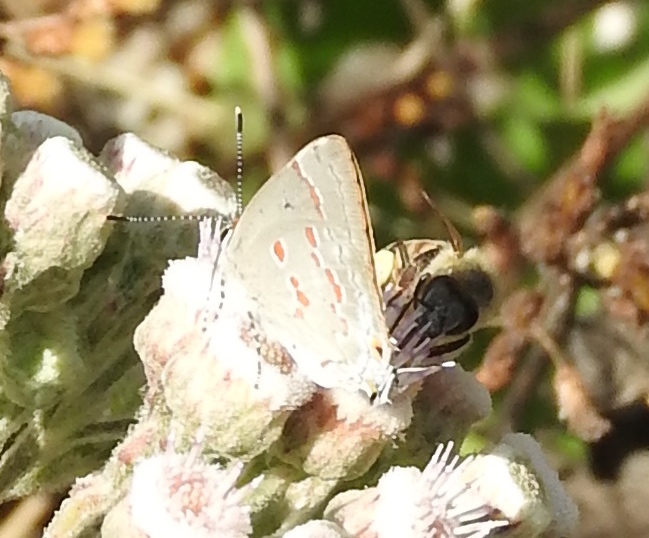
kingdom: Animalia
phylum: Arthropoda
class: Insecta
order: Lepidoptera
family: Lycaenidae
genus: Tmolus
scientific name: Tmolus echion
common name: Red-spotted hairstreak
